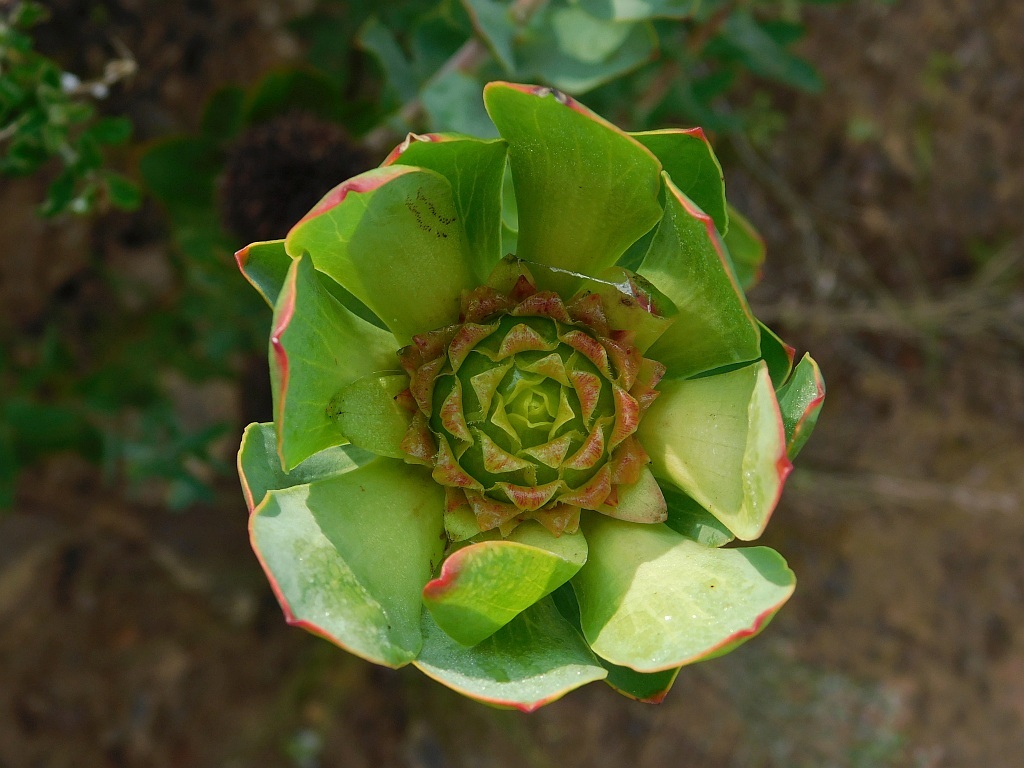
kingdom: Plantae
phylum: Tracheophyta
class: Magnoliopsida
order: Proteales
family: Proteaceae
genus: Leucadendron
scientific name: Leucadendron elimense
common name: Elim conebush
